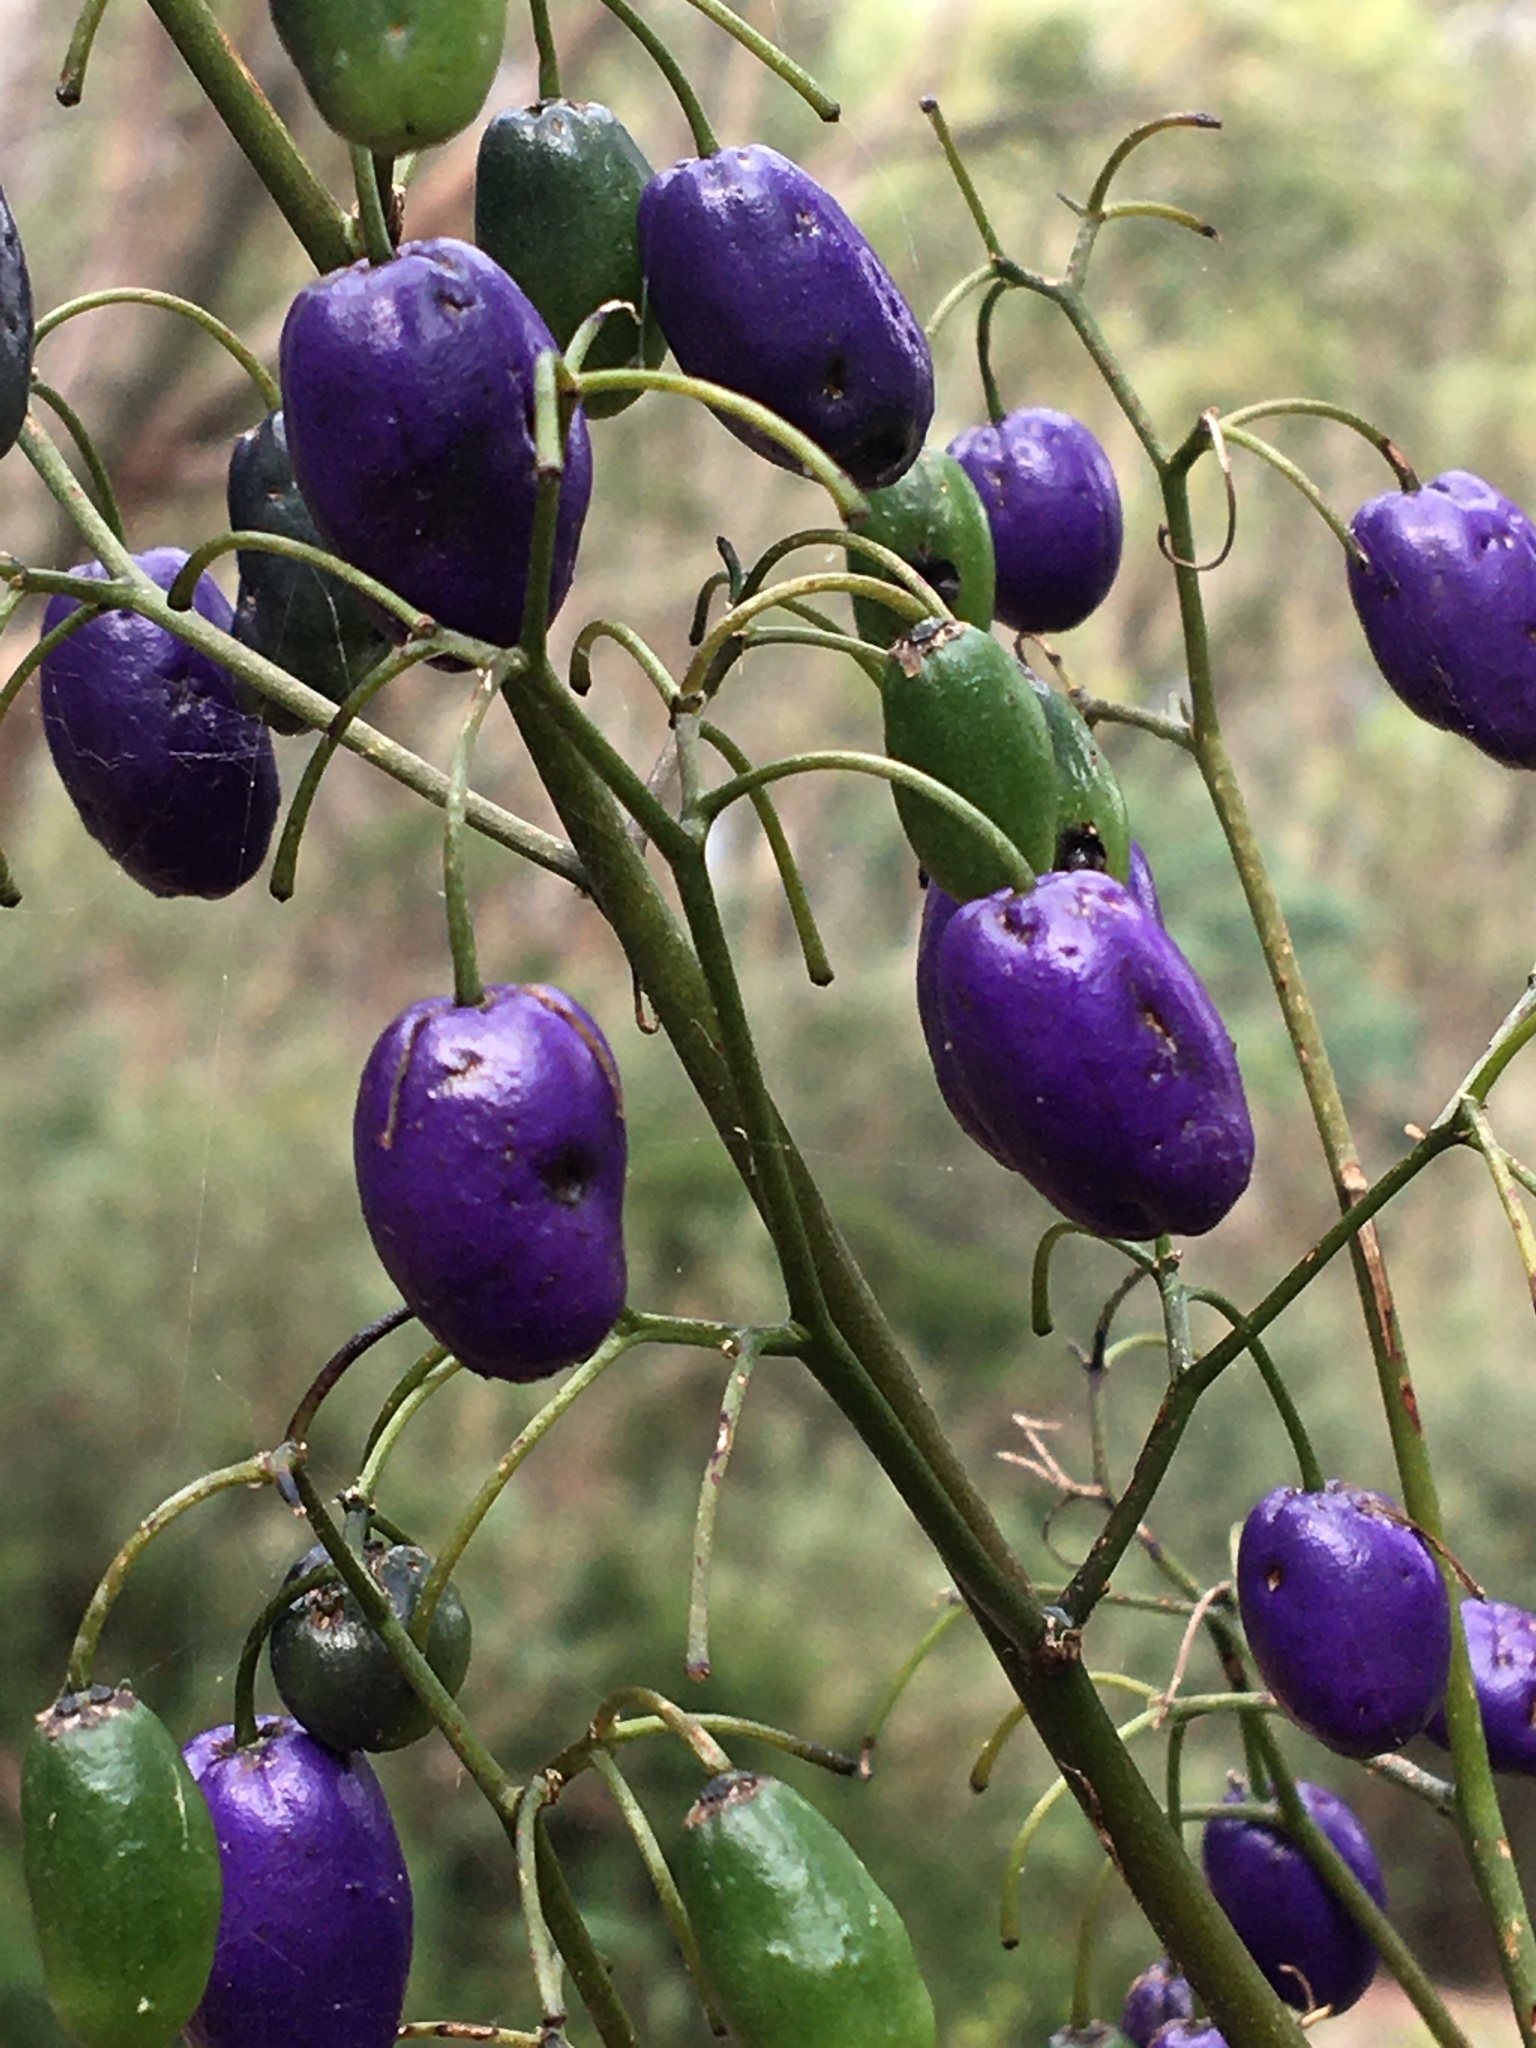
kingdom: Plantae
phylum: Tracheophyta
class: Liliopsida
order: Asparagales
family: Asphodelaceae
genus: Dianella
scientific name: Dianella tasmanica
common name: Tasman flax-lily
